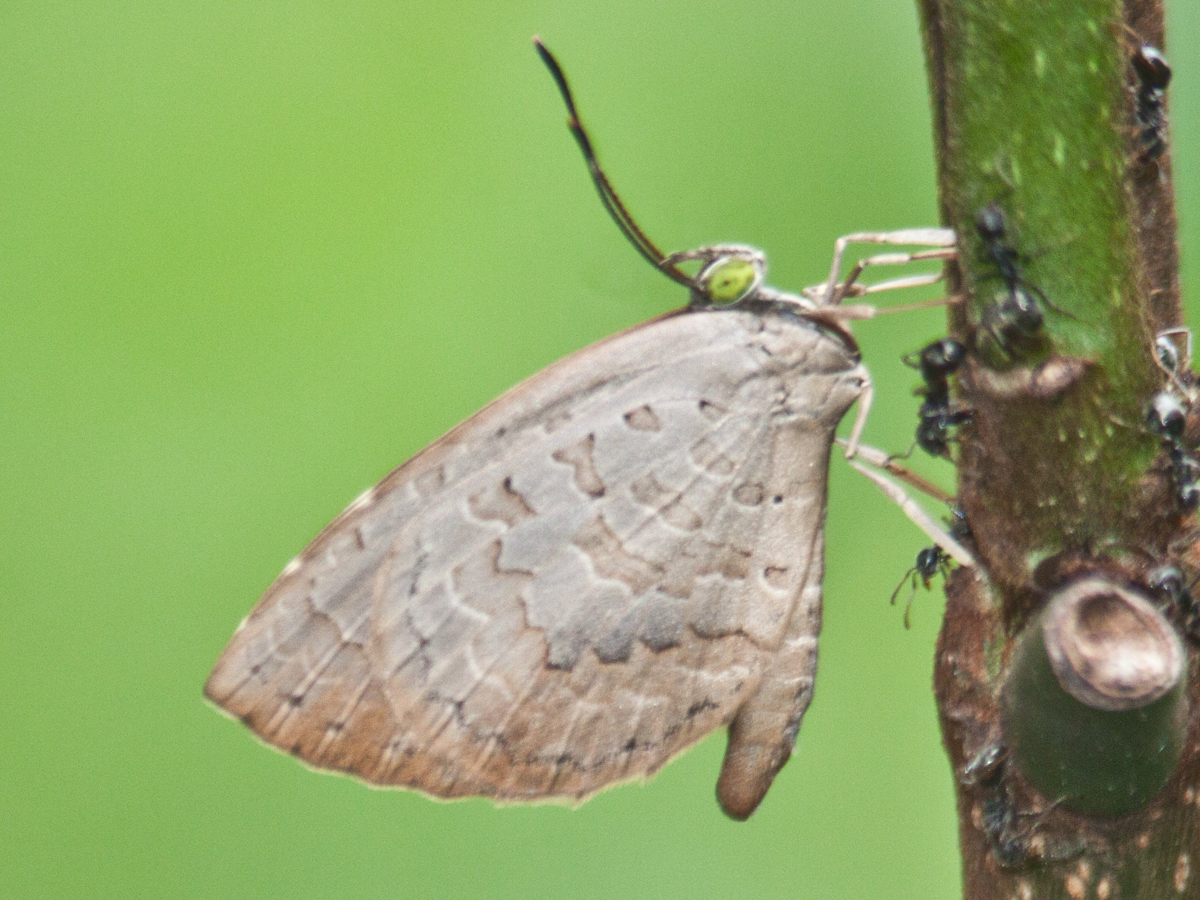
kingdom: Animalia
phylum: Arthropoda
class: Insecta
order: Lepidoptera
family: Lycaenidae
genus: Miletus
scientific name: Miletus chinensis
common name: Common brownie
